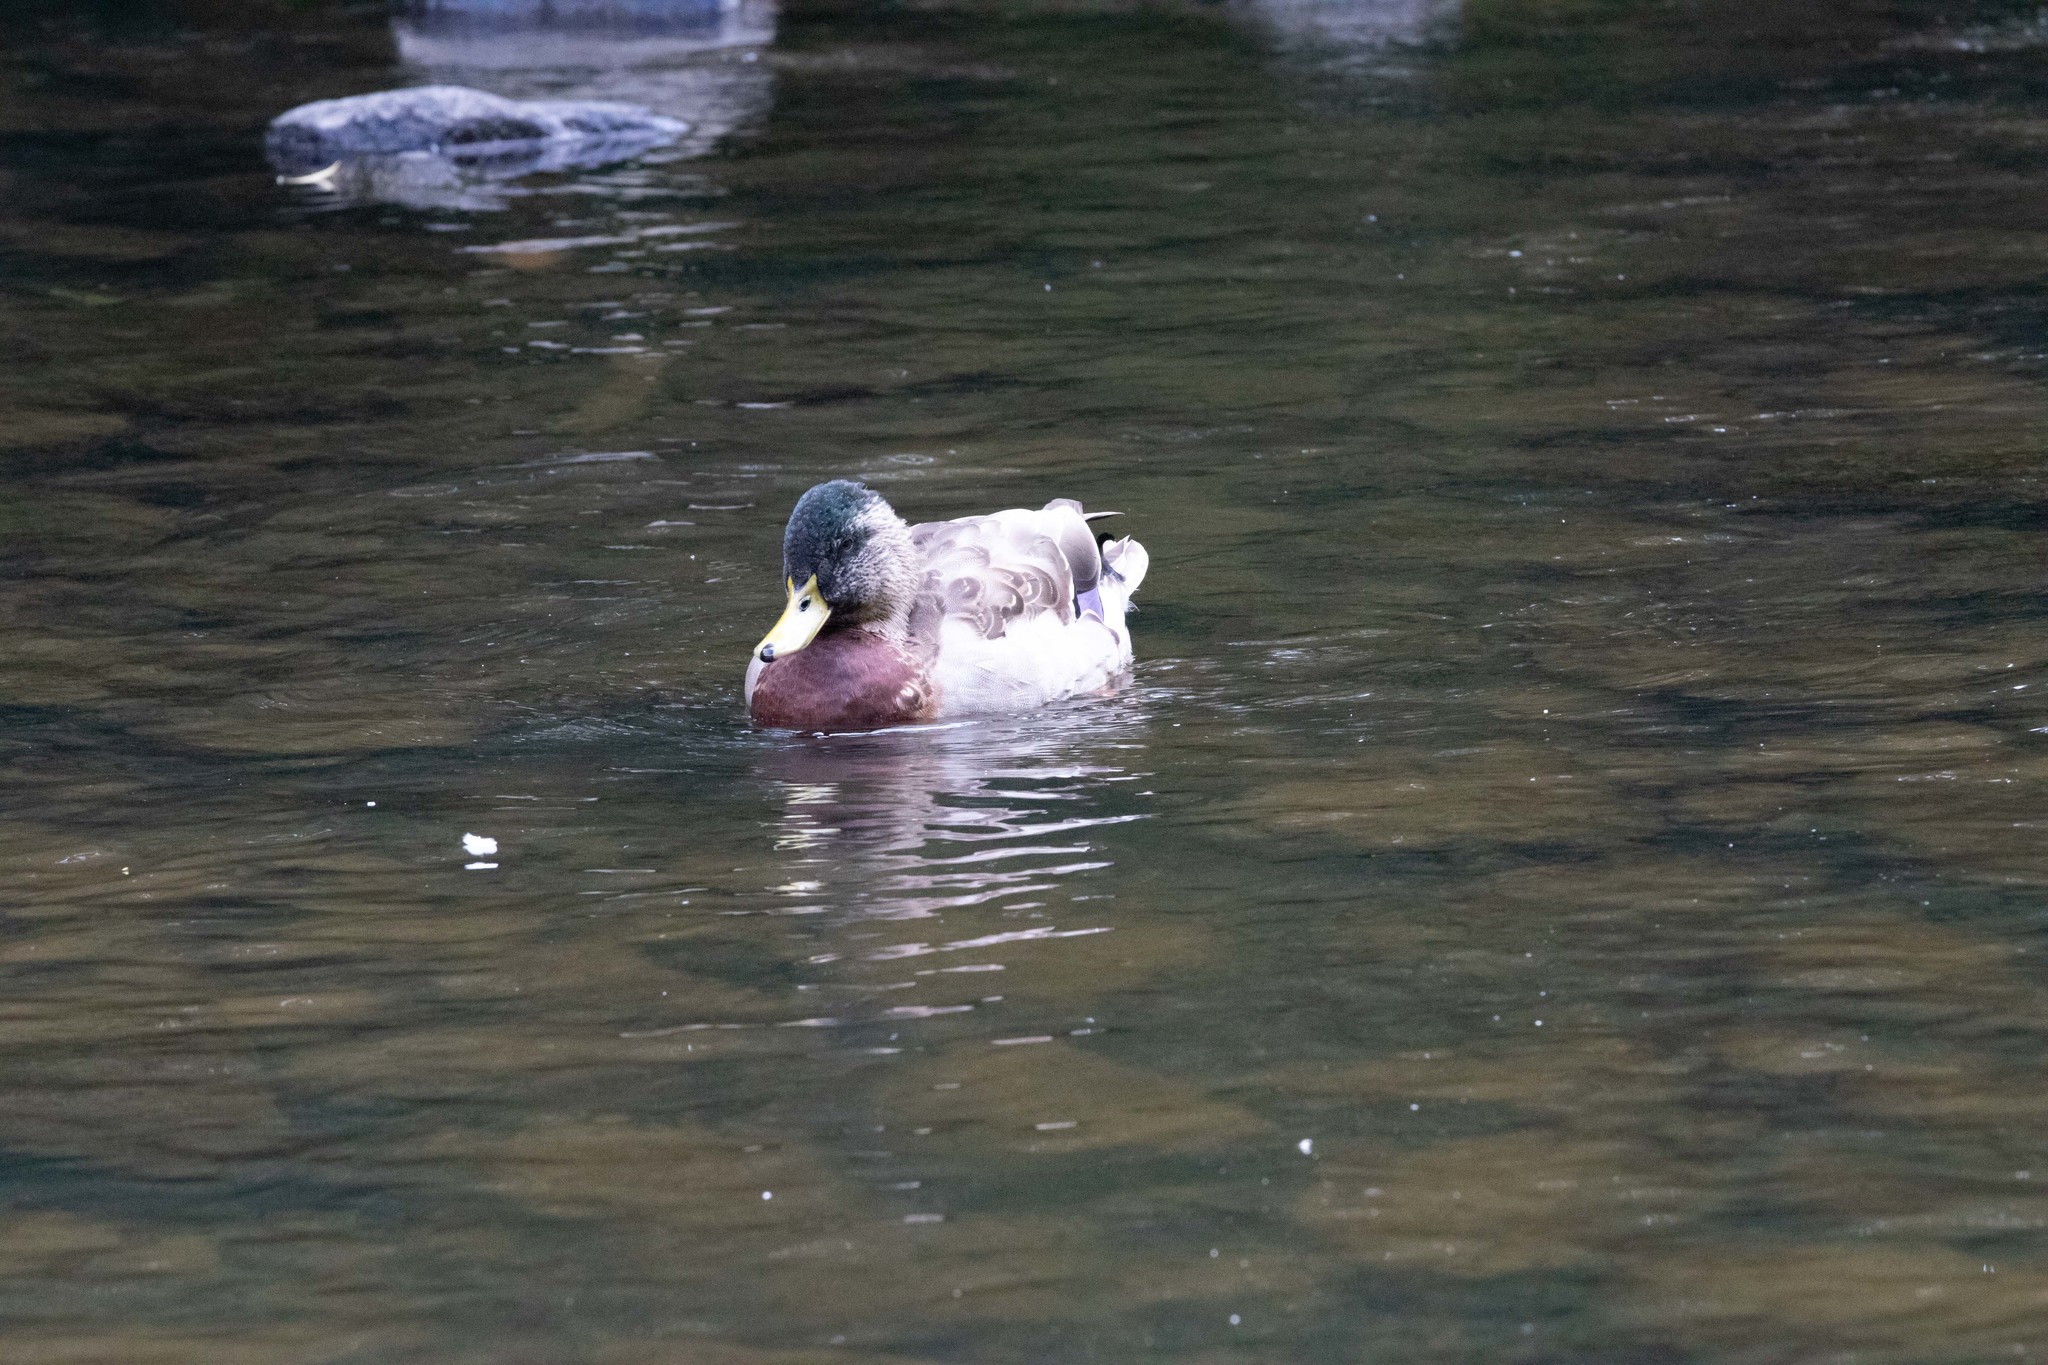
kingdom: Animalia
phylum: Chordata
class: Aves
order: Anseriformes
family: Anatidae
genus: Anas
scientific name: Anas
